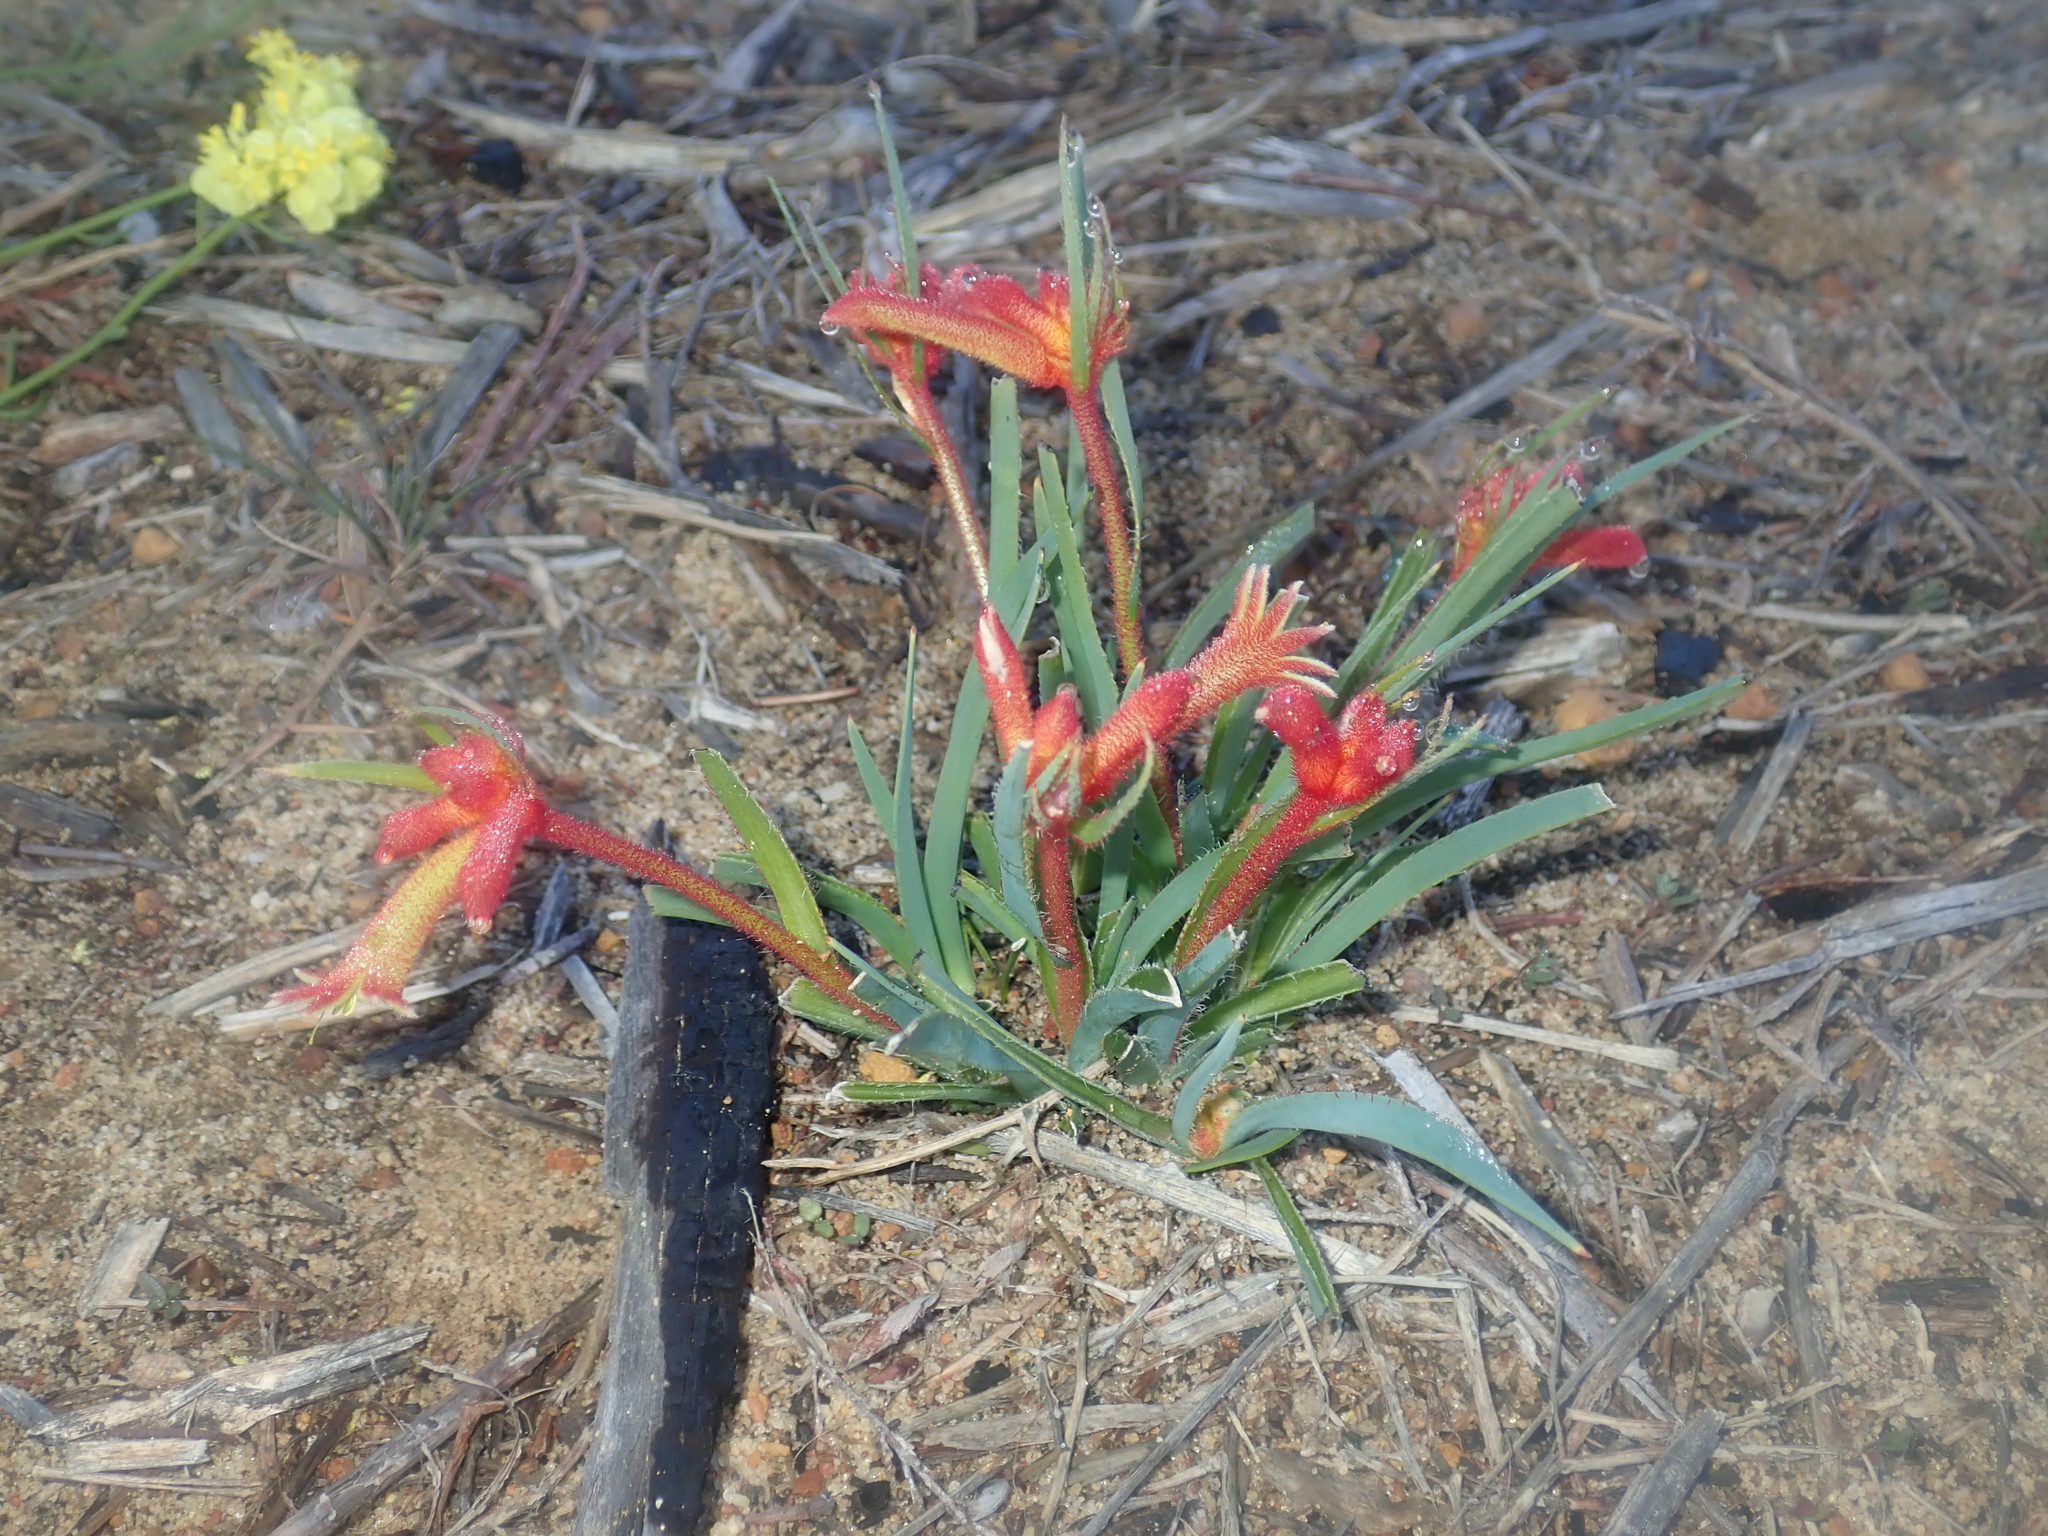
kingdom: Plantae
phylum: Tracheophyta
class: Liliopsida
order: Commelinales
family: Haemodoraceae
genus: Anigozanthos
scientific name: Anigozanthos humilis
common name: Cat's-paw
